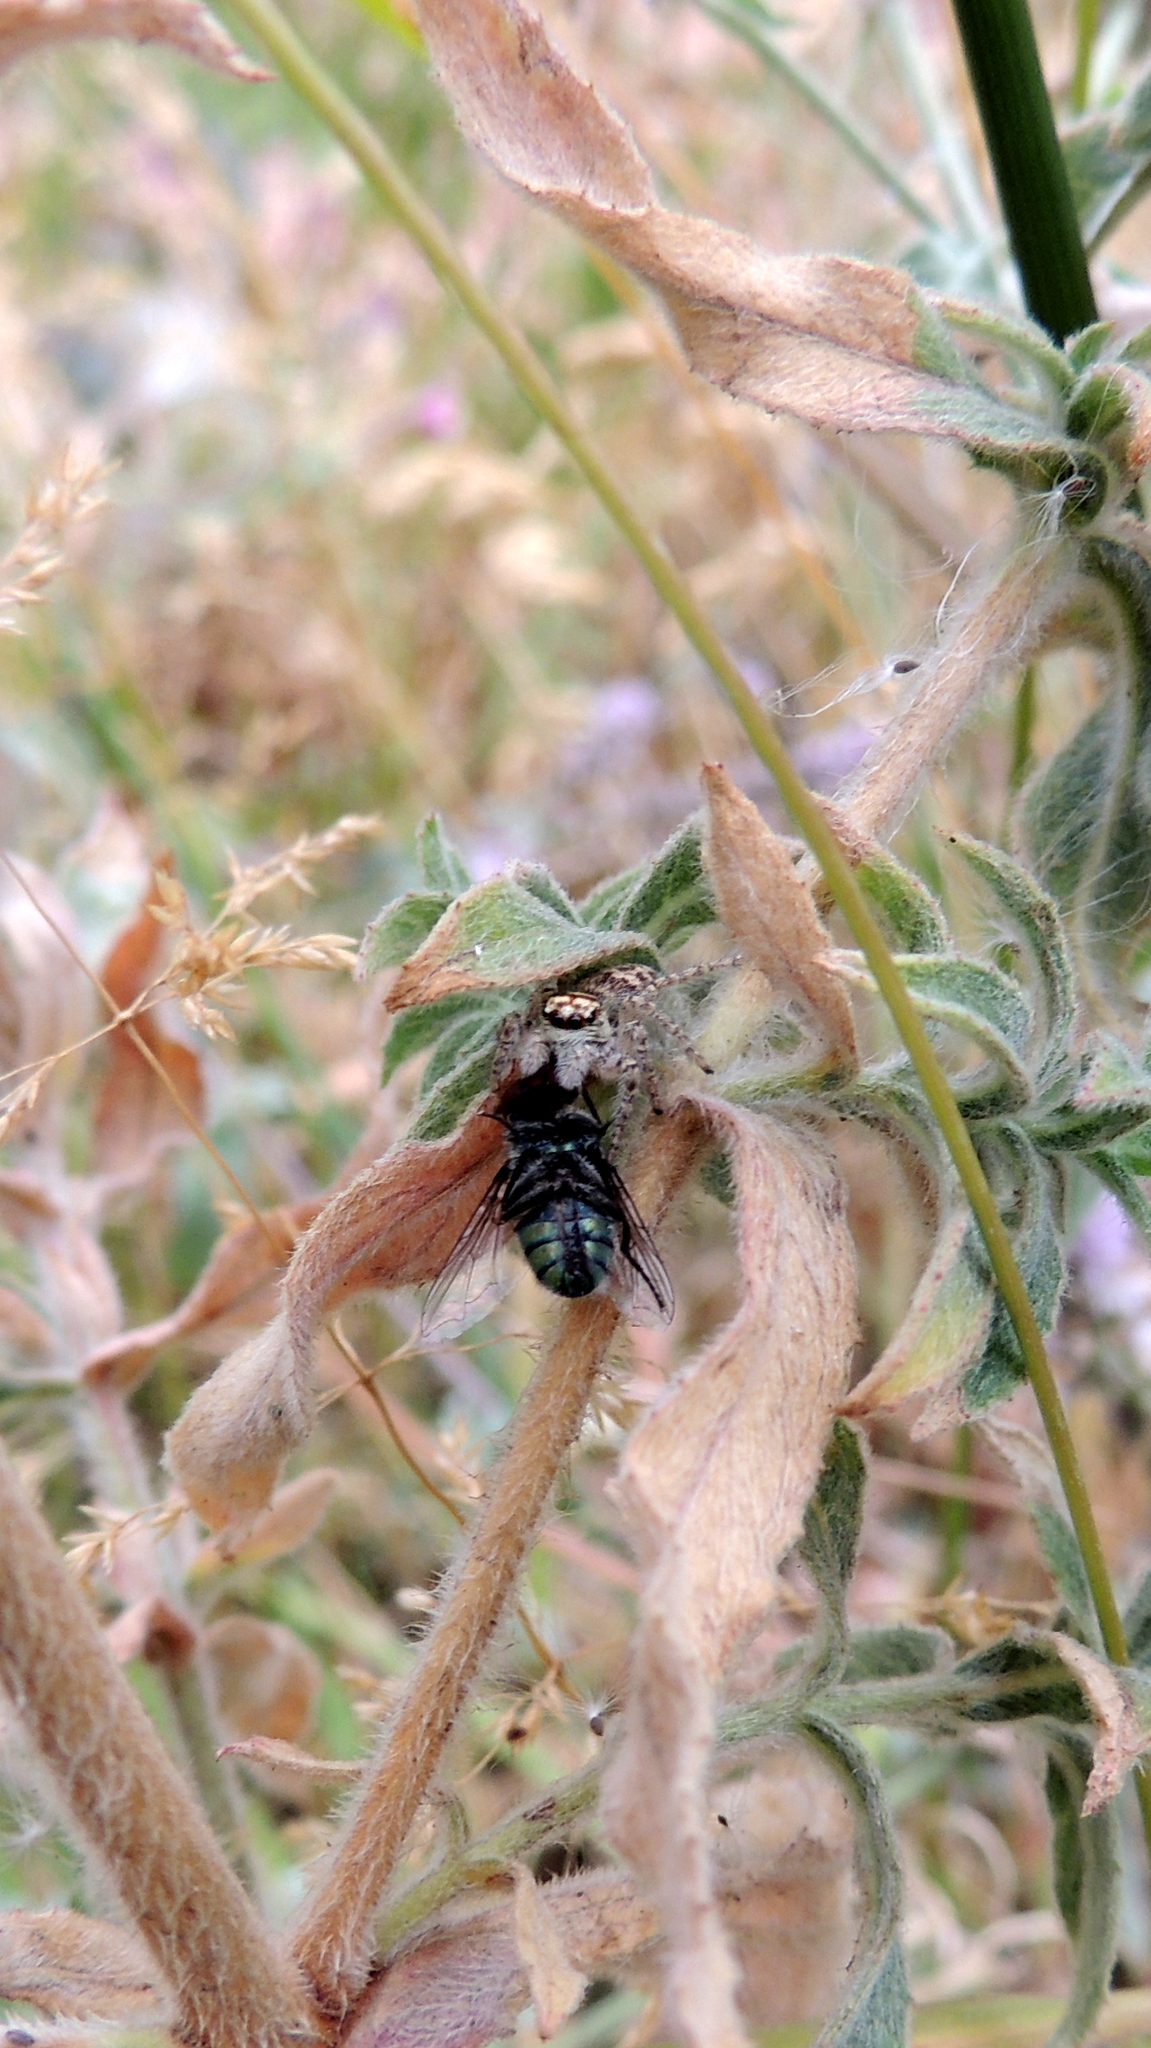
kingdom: Animalia
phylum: Arthropoda
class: Arachnida
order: Araneae
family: Salticidae
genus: Philaeus
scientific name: Philaeus chrysops
